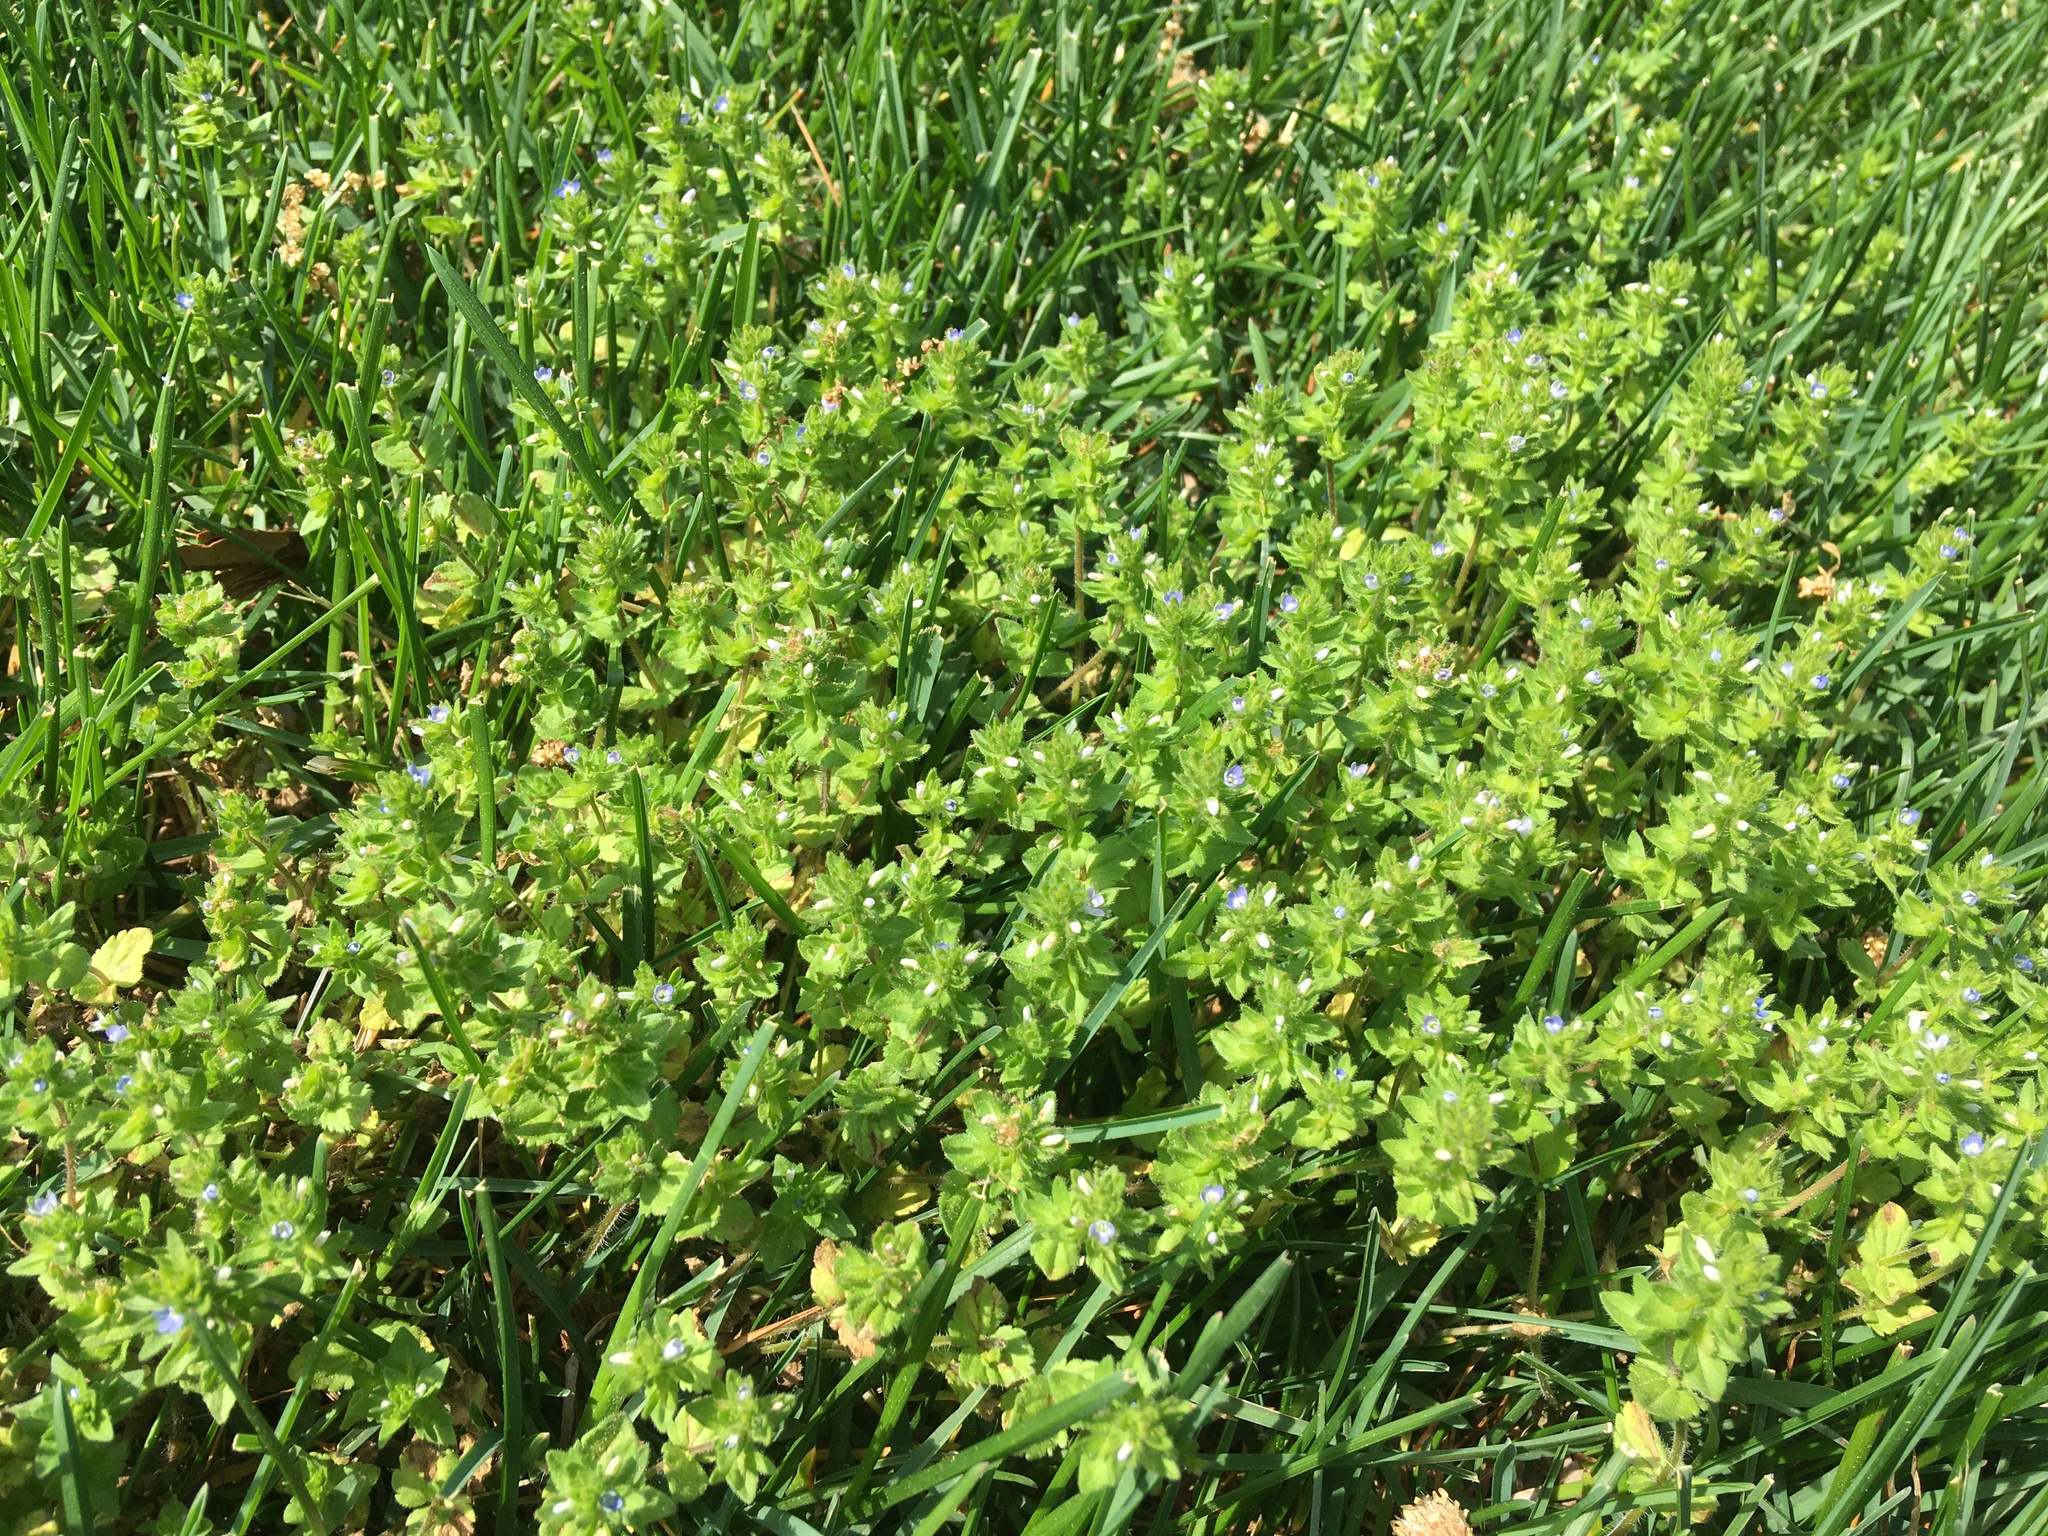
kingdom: Plantae
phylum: Tracheophyta
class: Magnoliopsida
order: Lamiales
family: Plantaginaceae
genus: Veronica
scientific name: Veronica arvensis
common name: Corn speedwell
